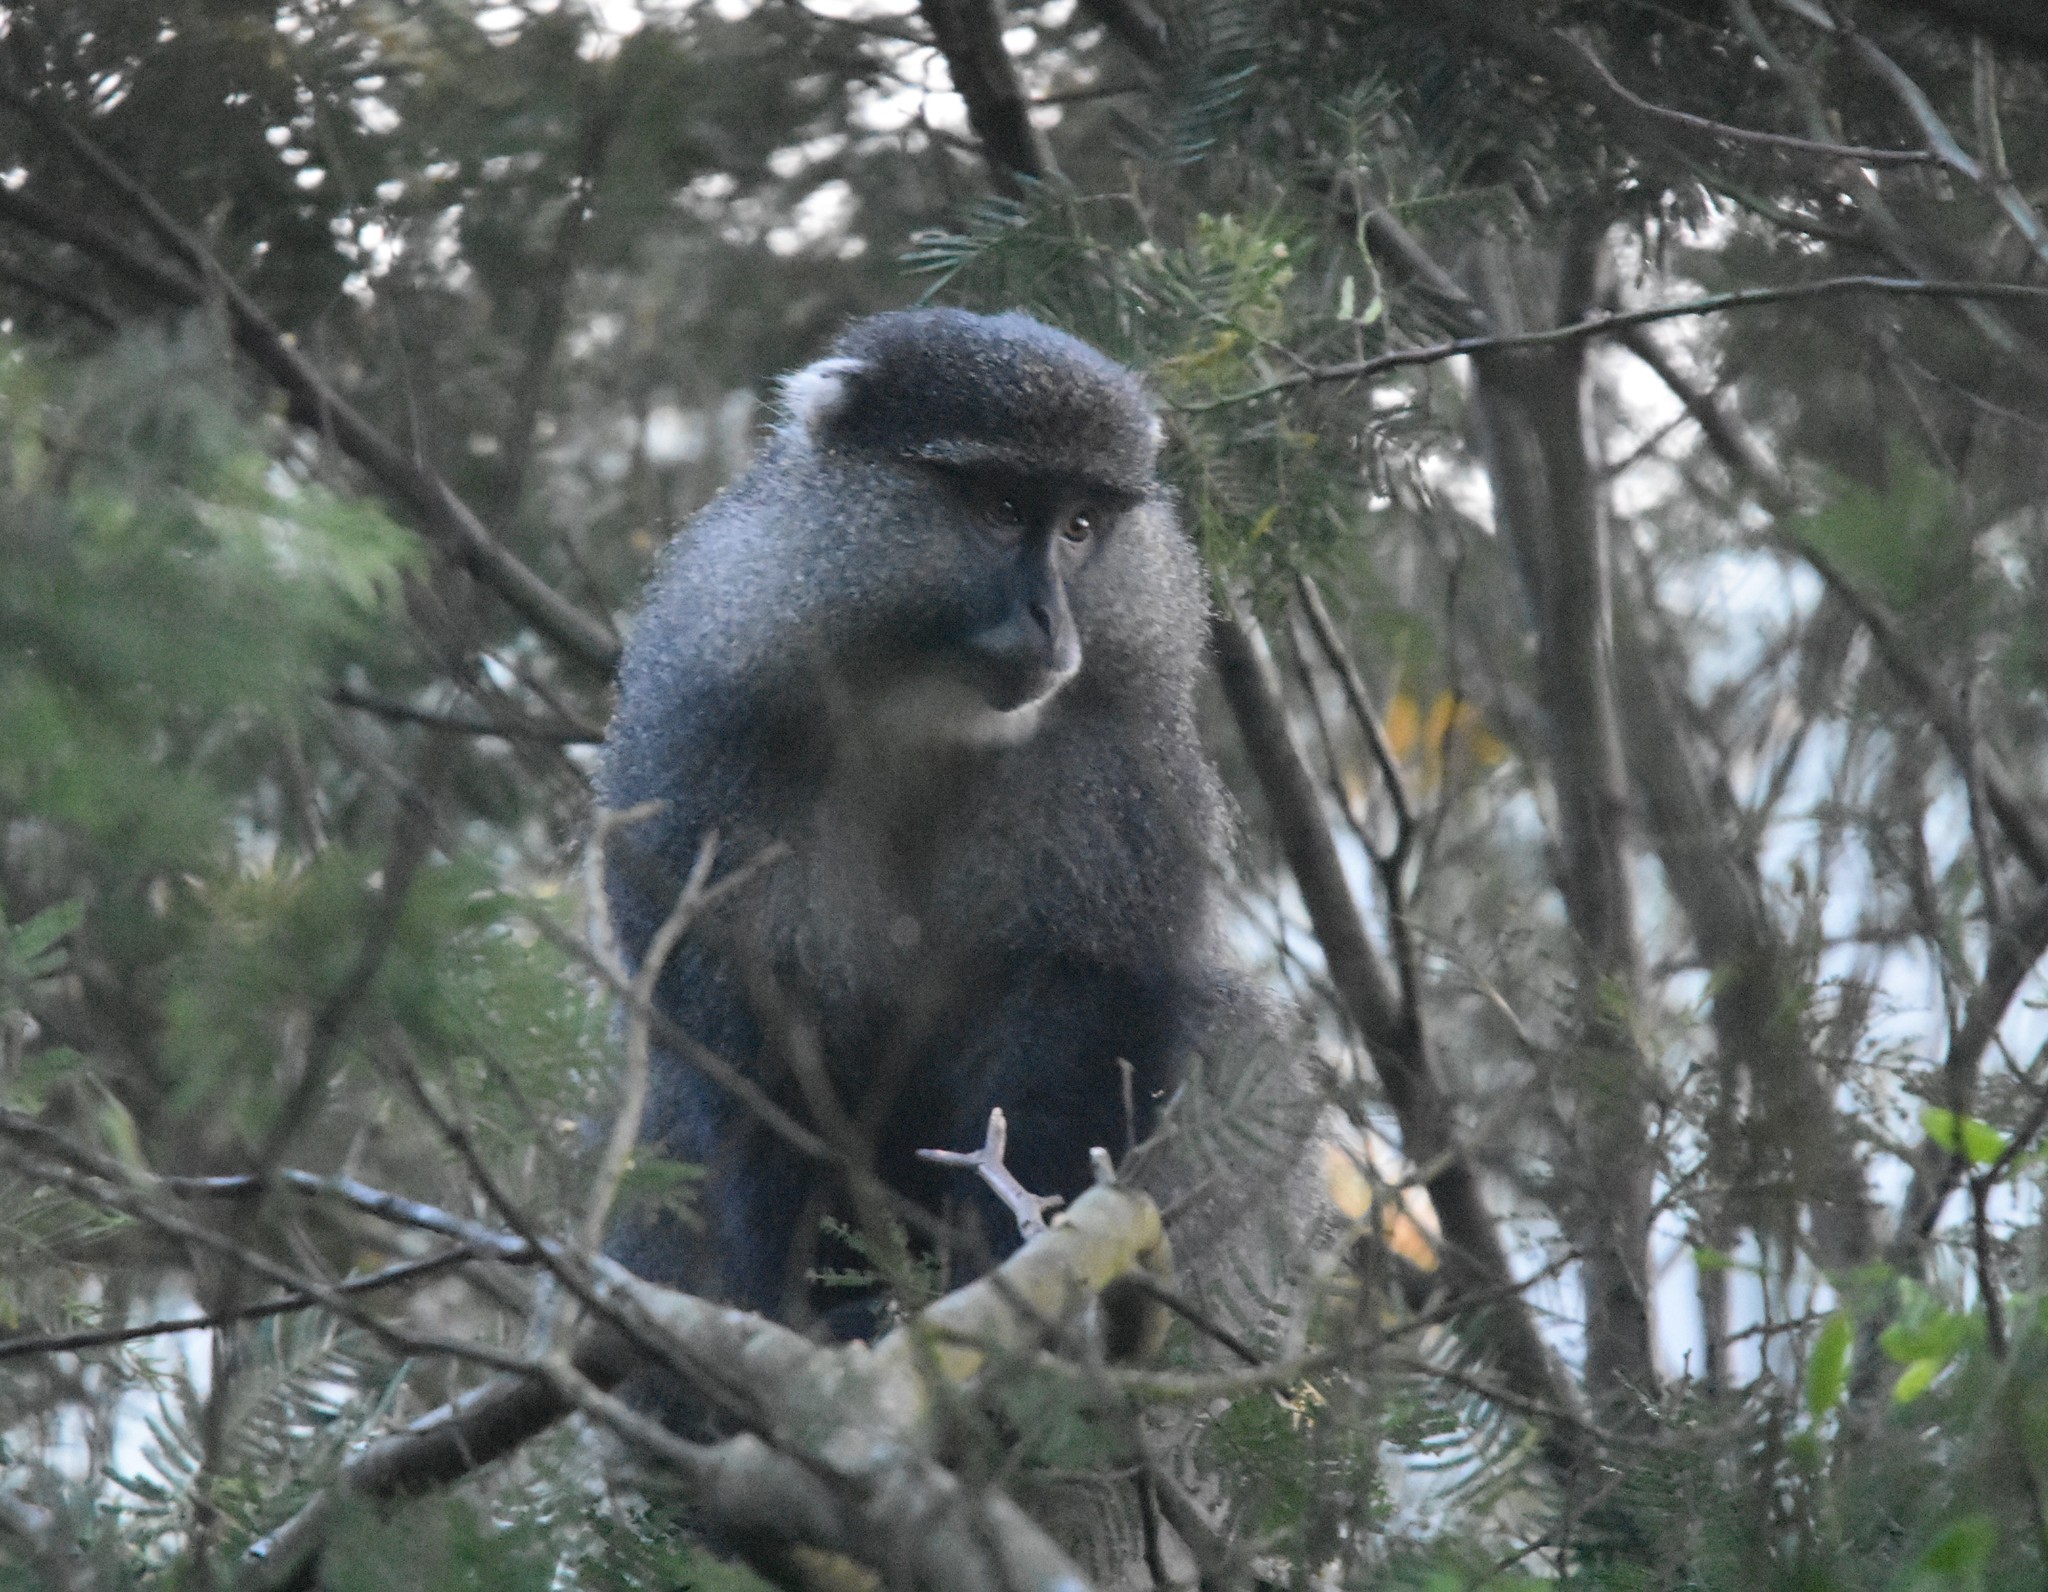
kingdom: Animalia
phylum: Chordata
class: Mammalia
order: Primates
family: Cercopithecidae
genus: Cercopithecus
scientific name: Cercopithecus mitis
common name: Blue monkey
